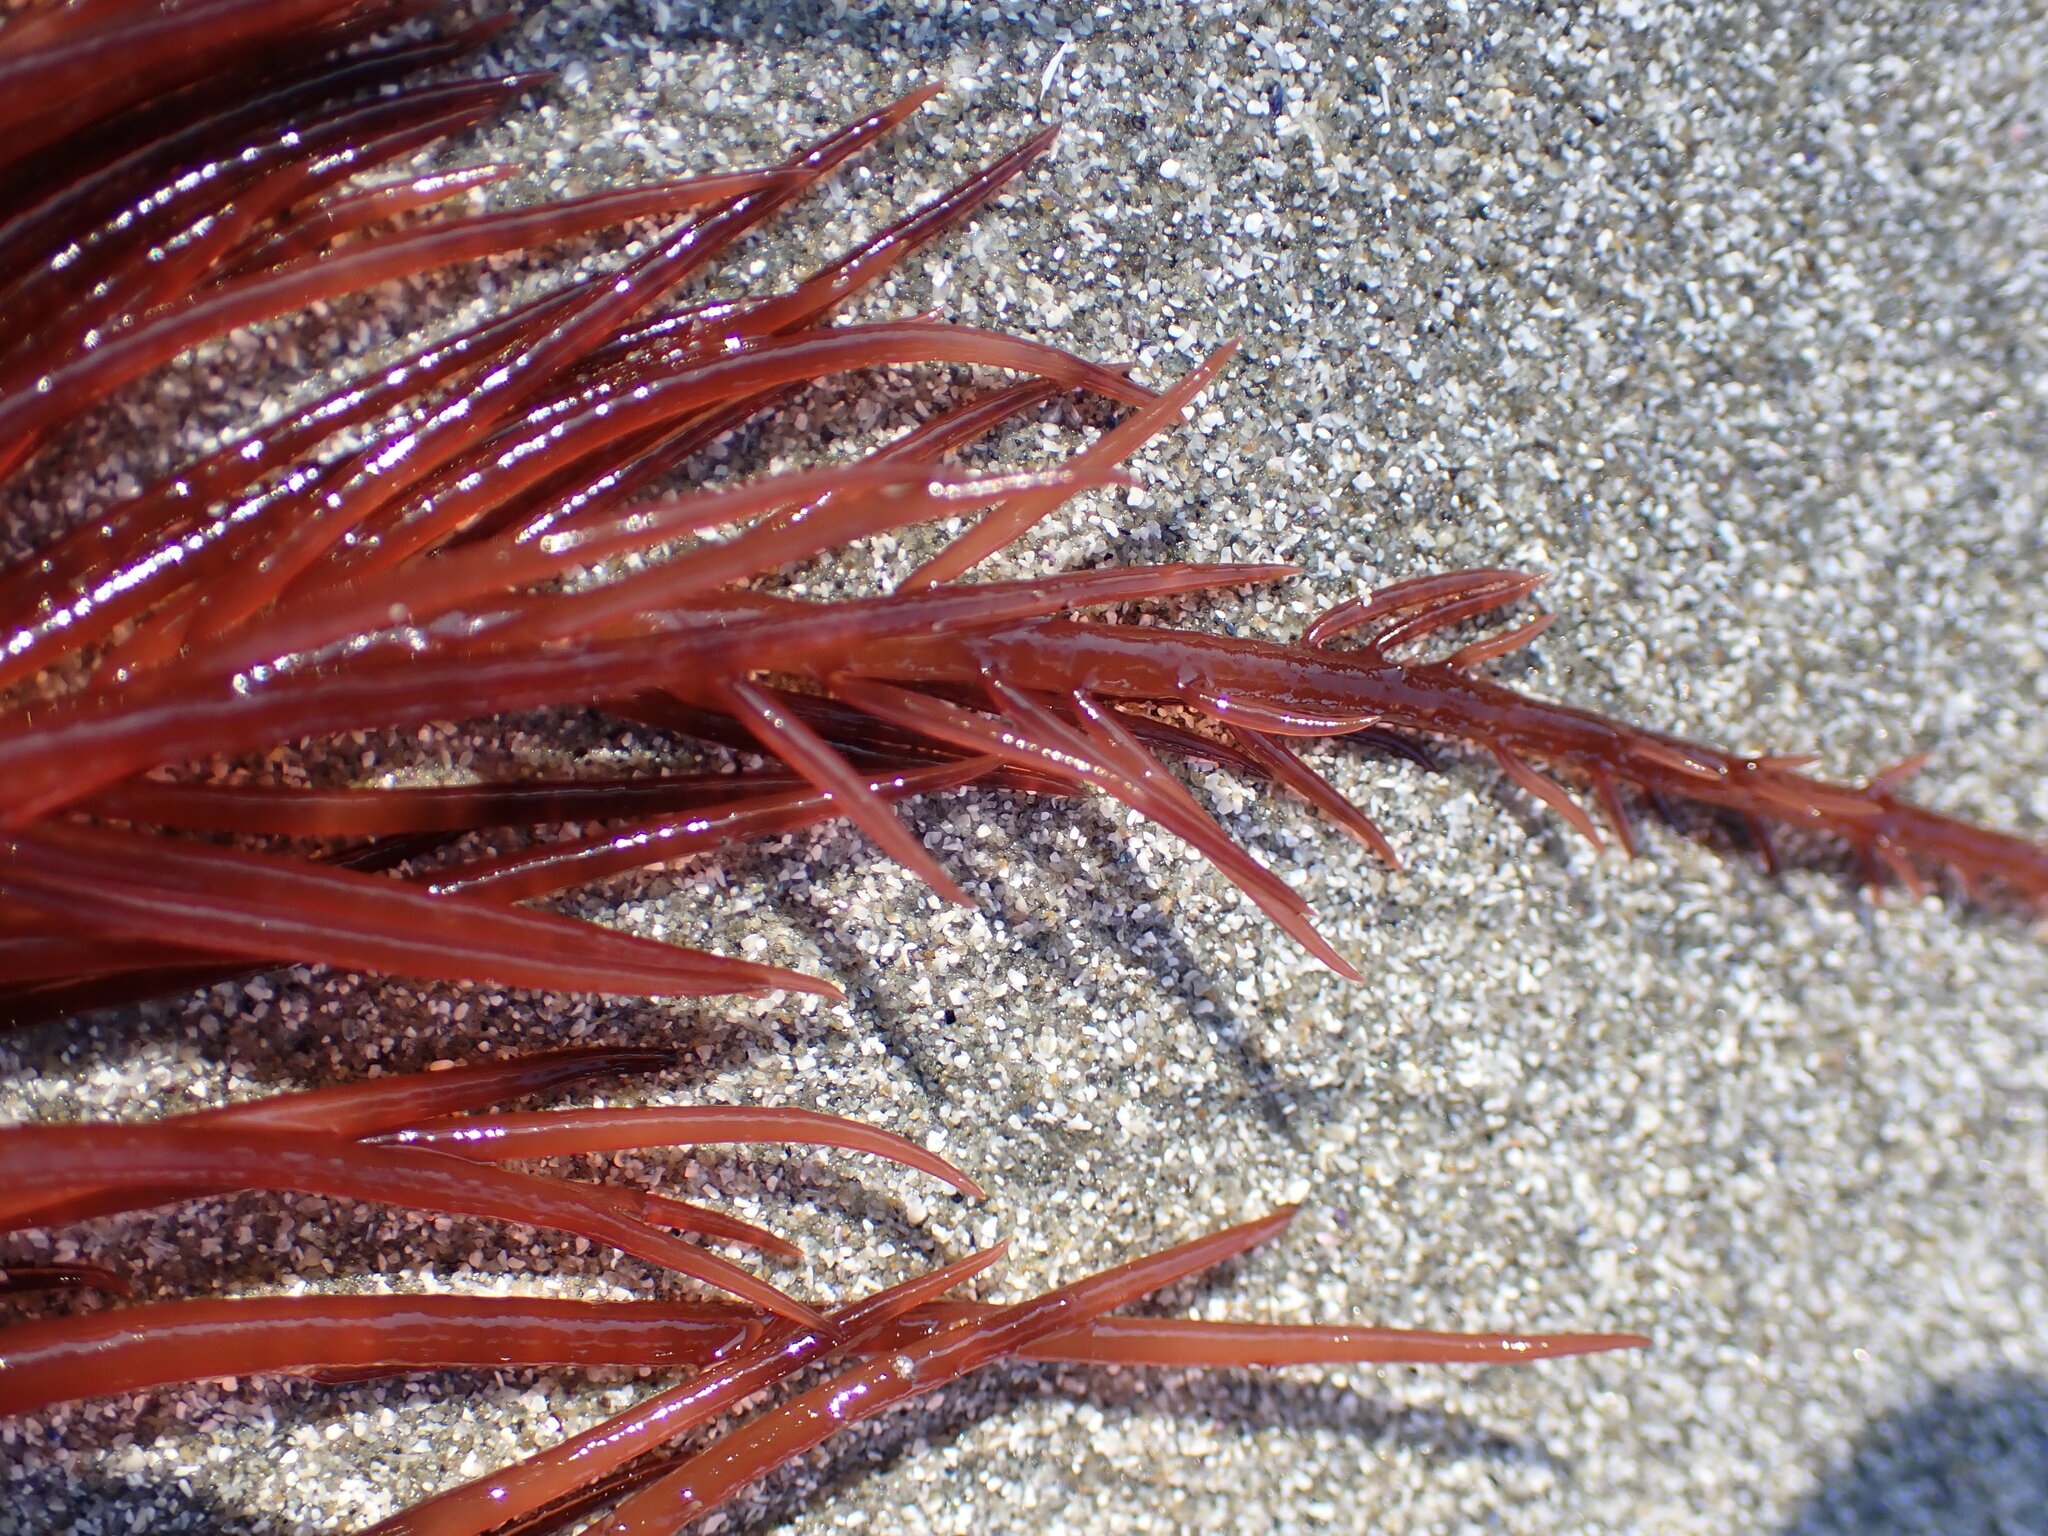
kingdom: Plantae
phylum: Rhodophyta
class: Florideophyceae
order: Gigartinales
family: Solieriaceae
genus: Sarcodiotheca
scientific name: Sarcodiotheca gaudichaudii
